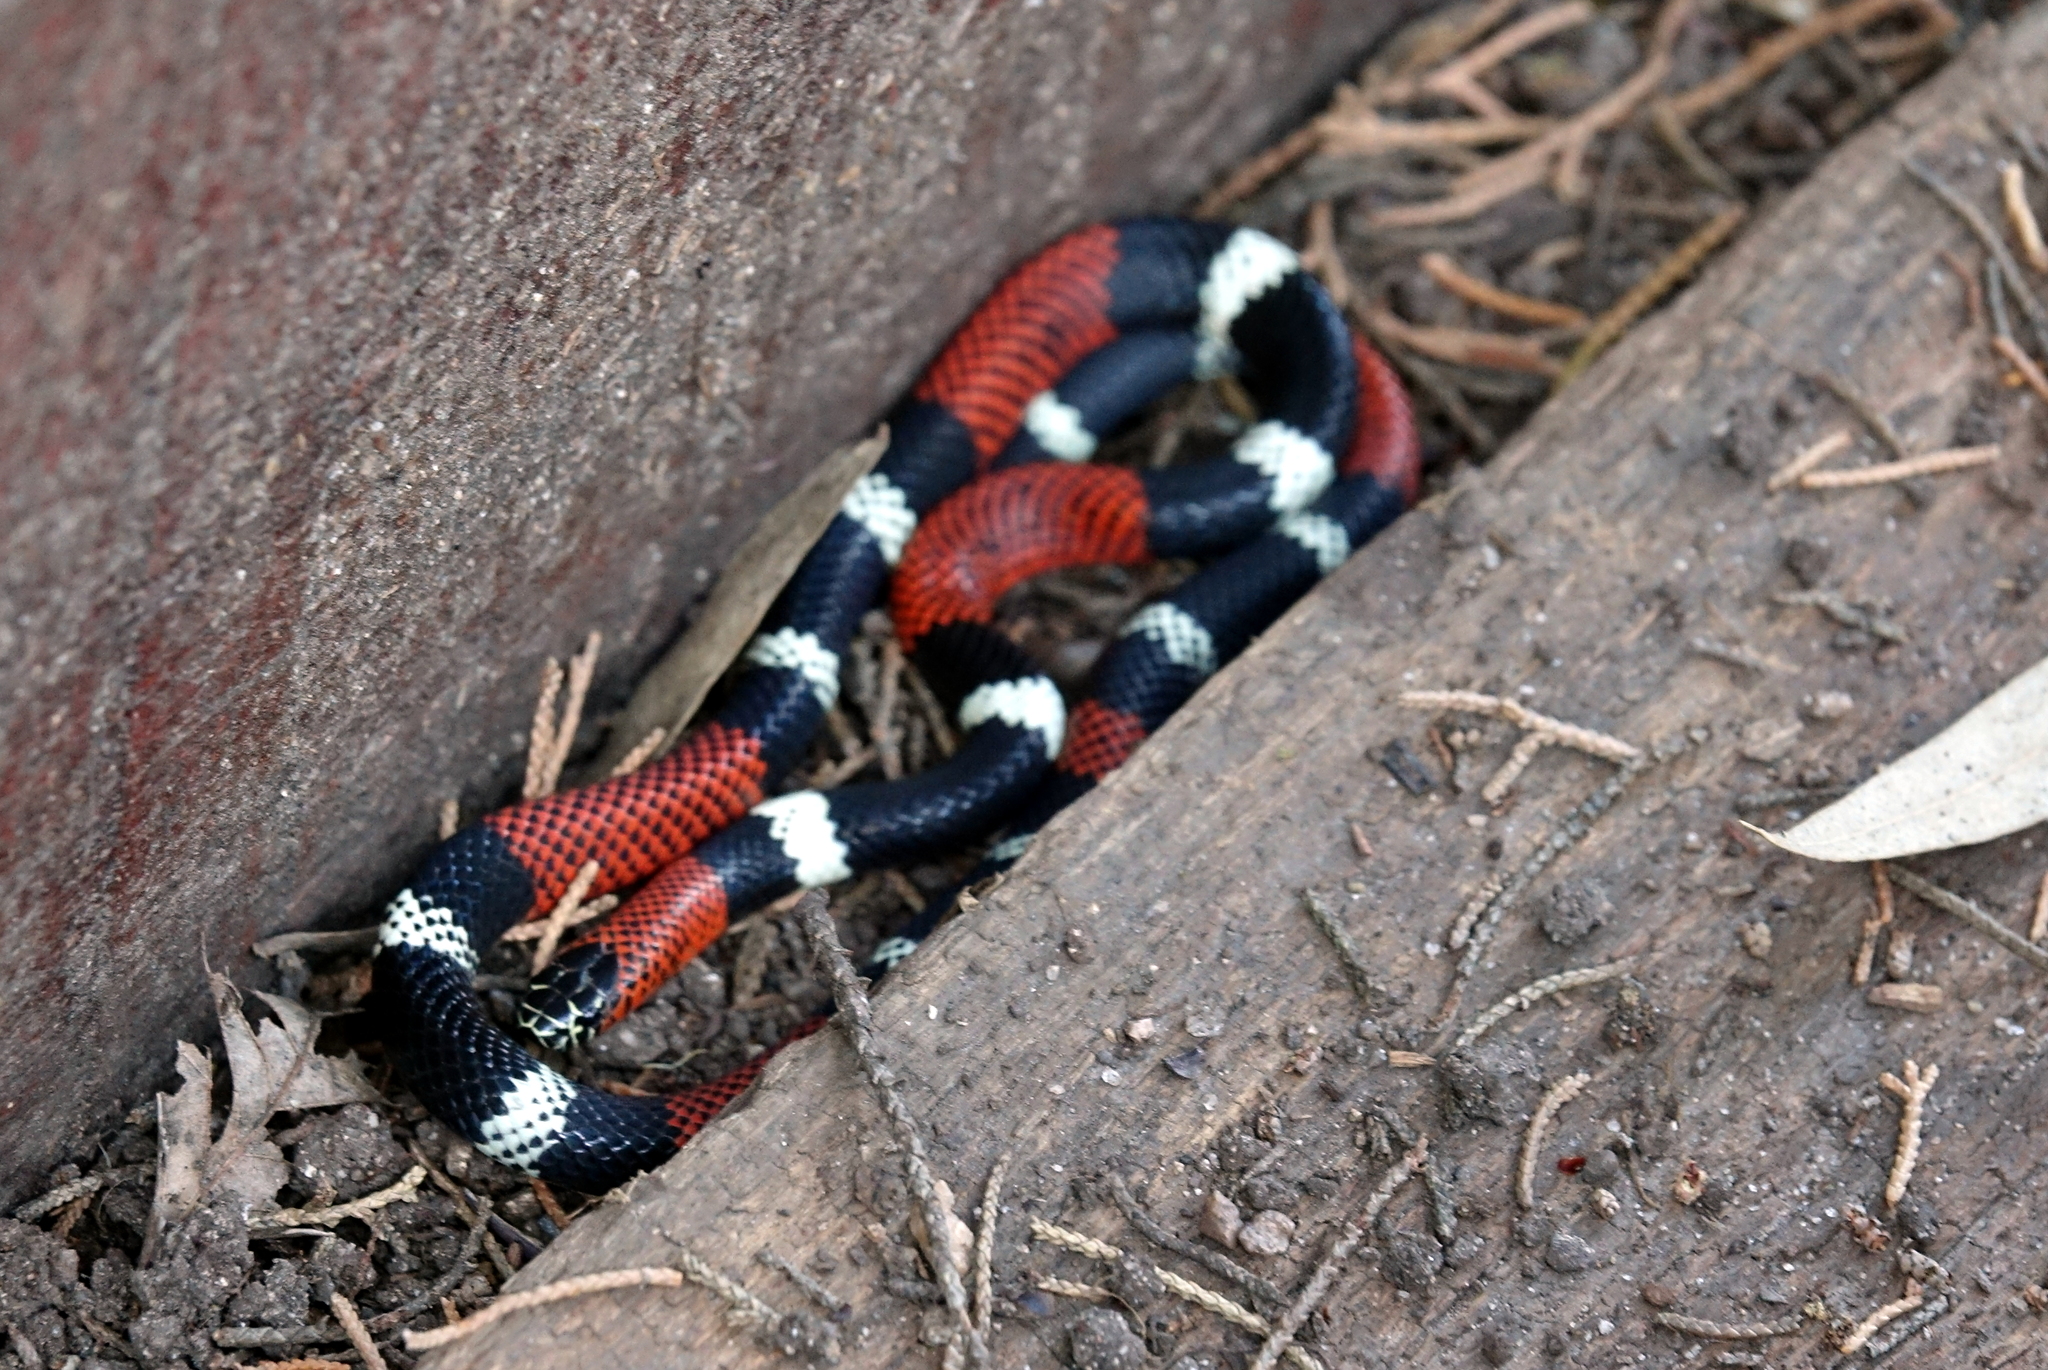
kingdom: Animalia
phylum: Chordata
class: Squamata
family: Elapidae
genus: Micrurus
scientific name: Micrurus pyrrhocryptus
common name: Argentinian coral snake
